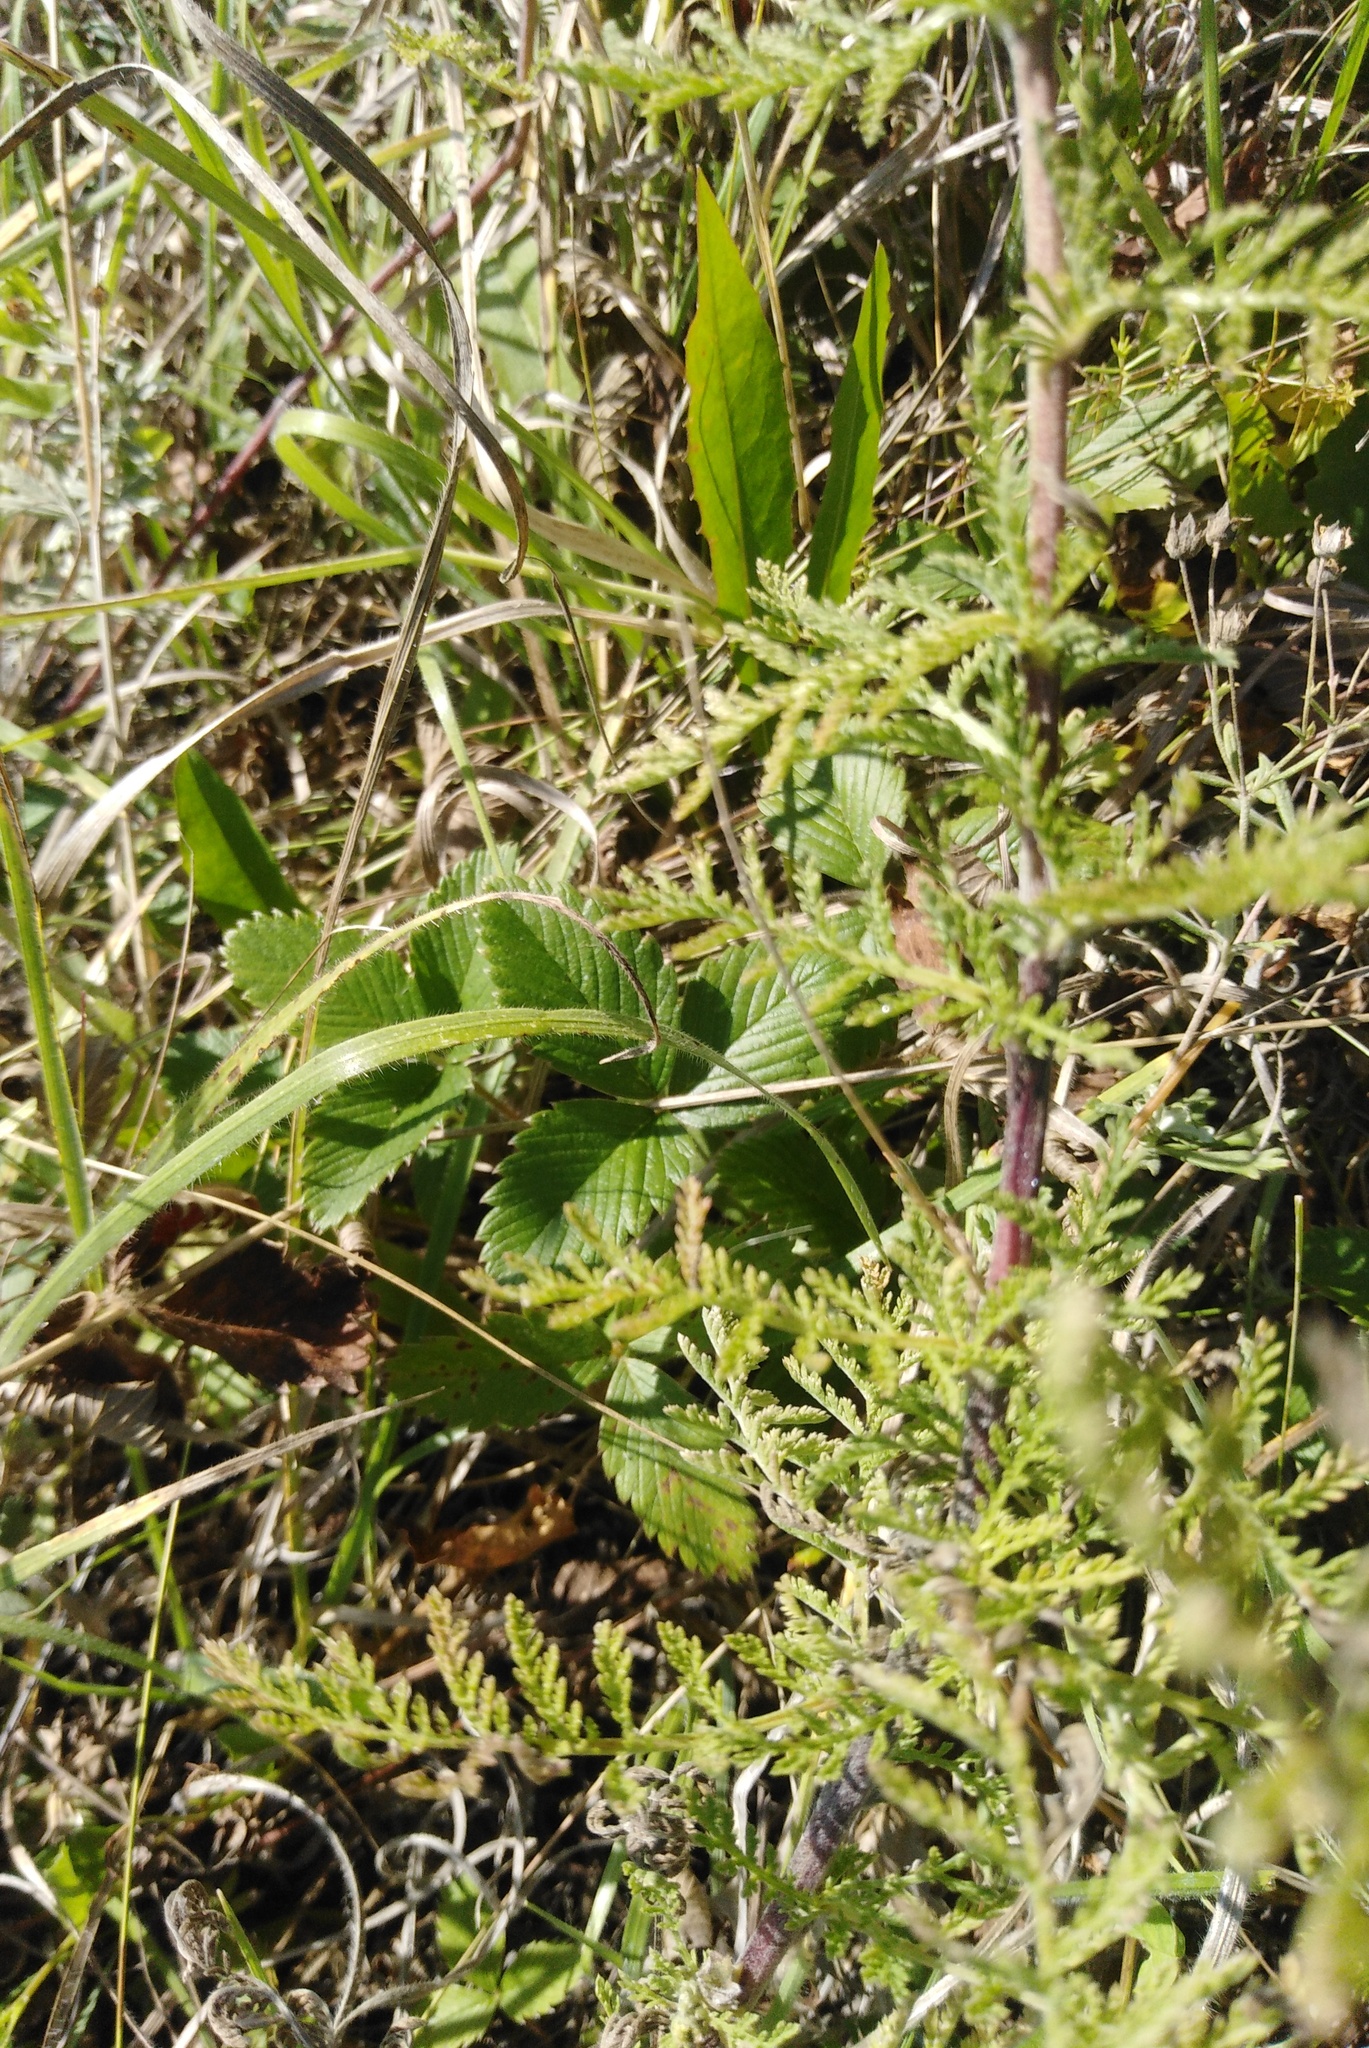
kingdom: Plantae
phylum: Tracheophyta
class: Magnoliopsida
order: Asterales
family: Asteraceae
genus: Achillea
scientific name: Achillea nobilis
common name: Noble yarrow
